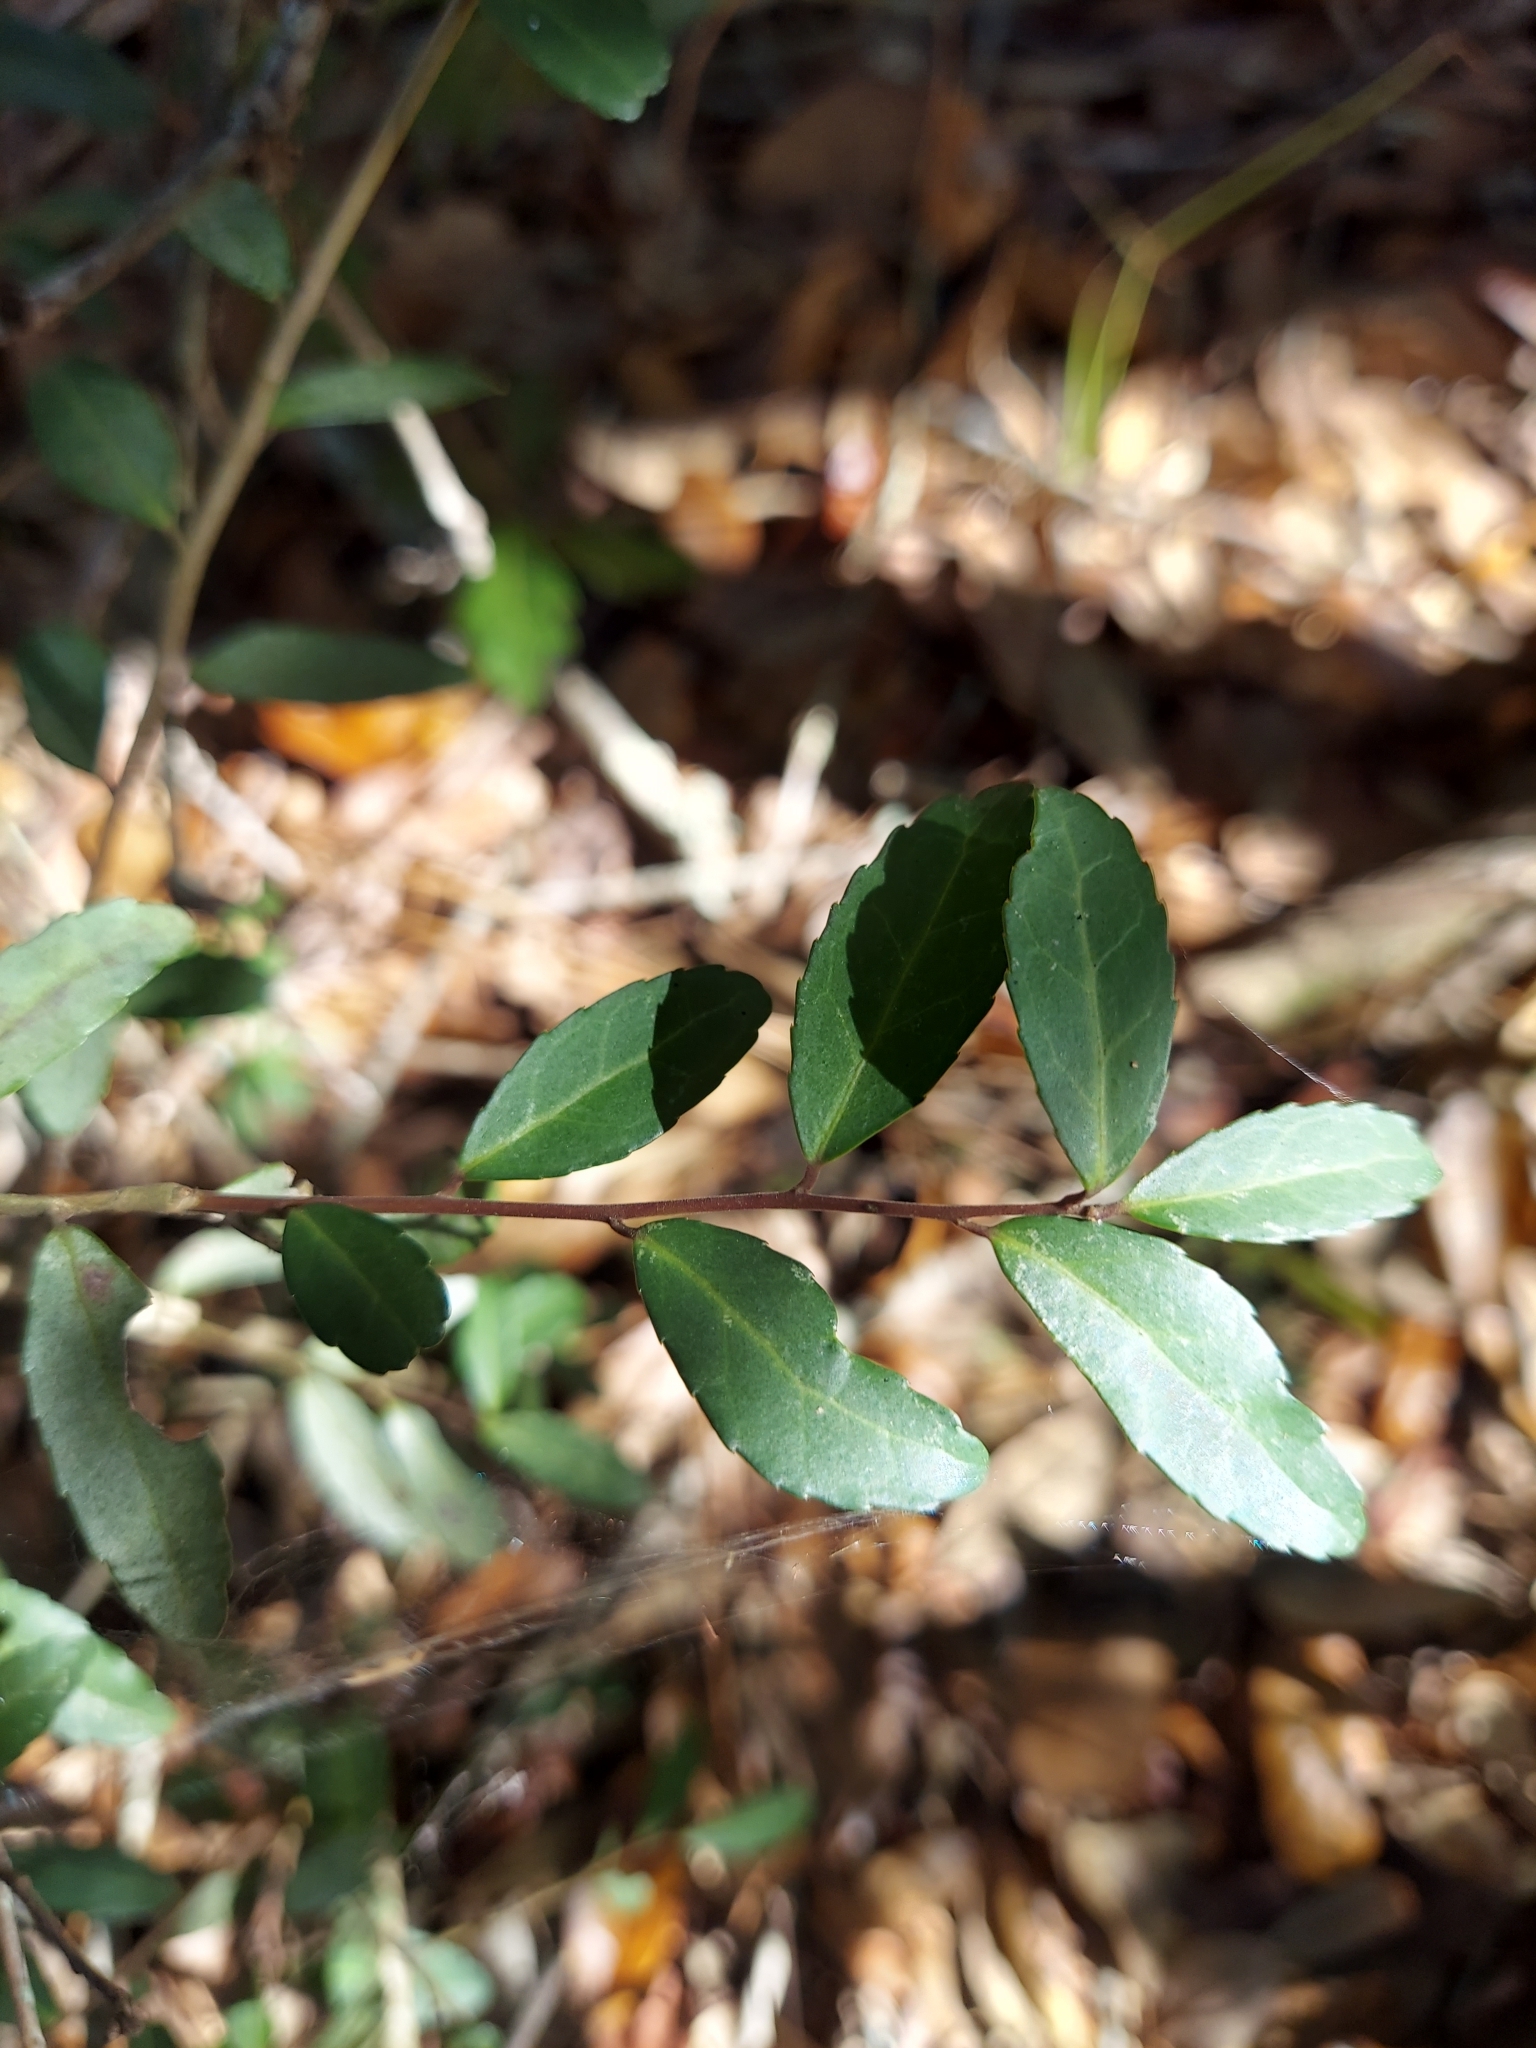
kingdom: Plantae
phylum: Tracheophyta
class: Magnoliopsida
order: Aquifoliales
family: Aquifoliaceae
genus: Ilex
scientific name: Ilex vomitoria
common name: Yaupon holly
